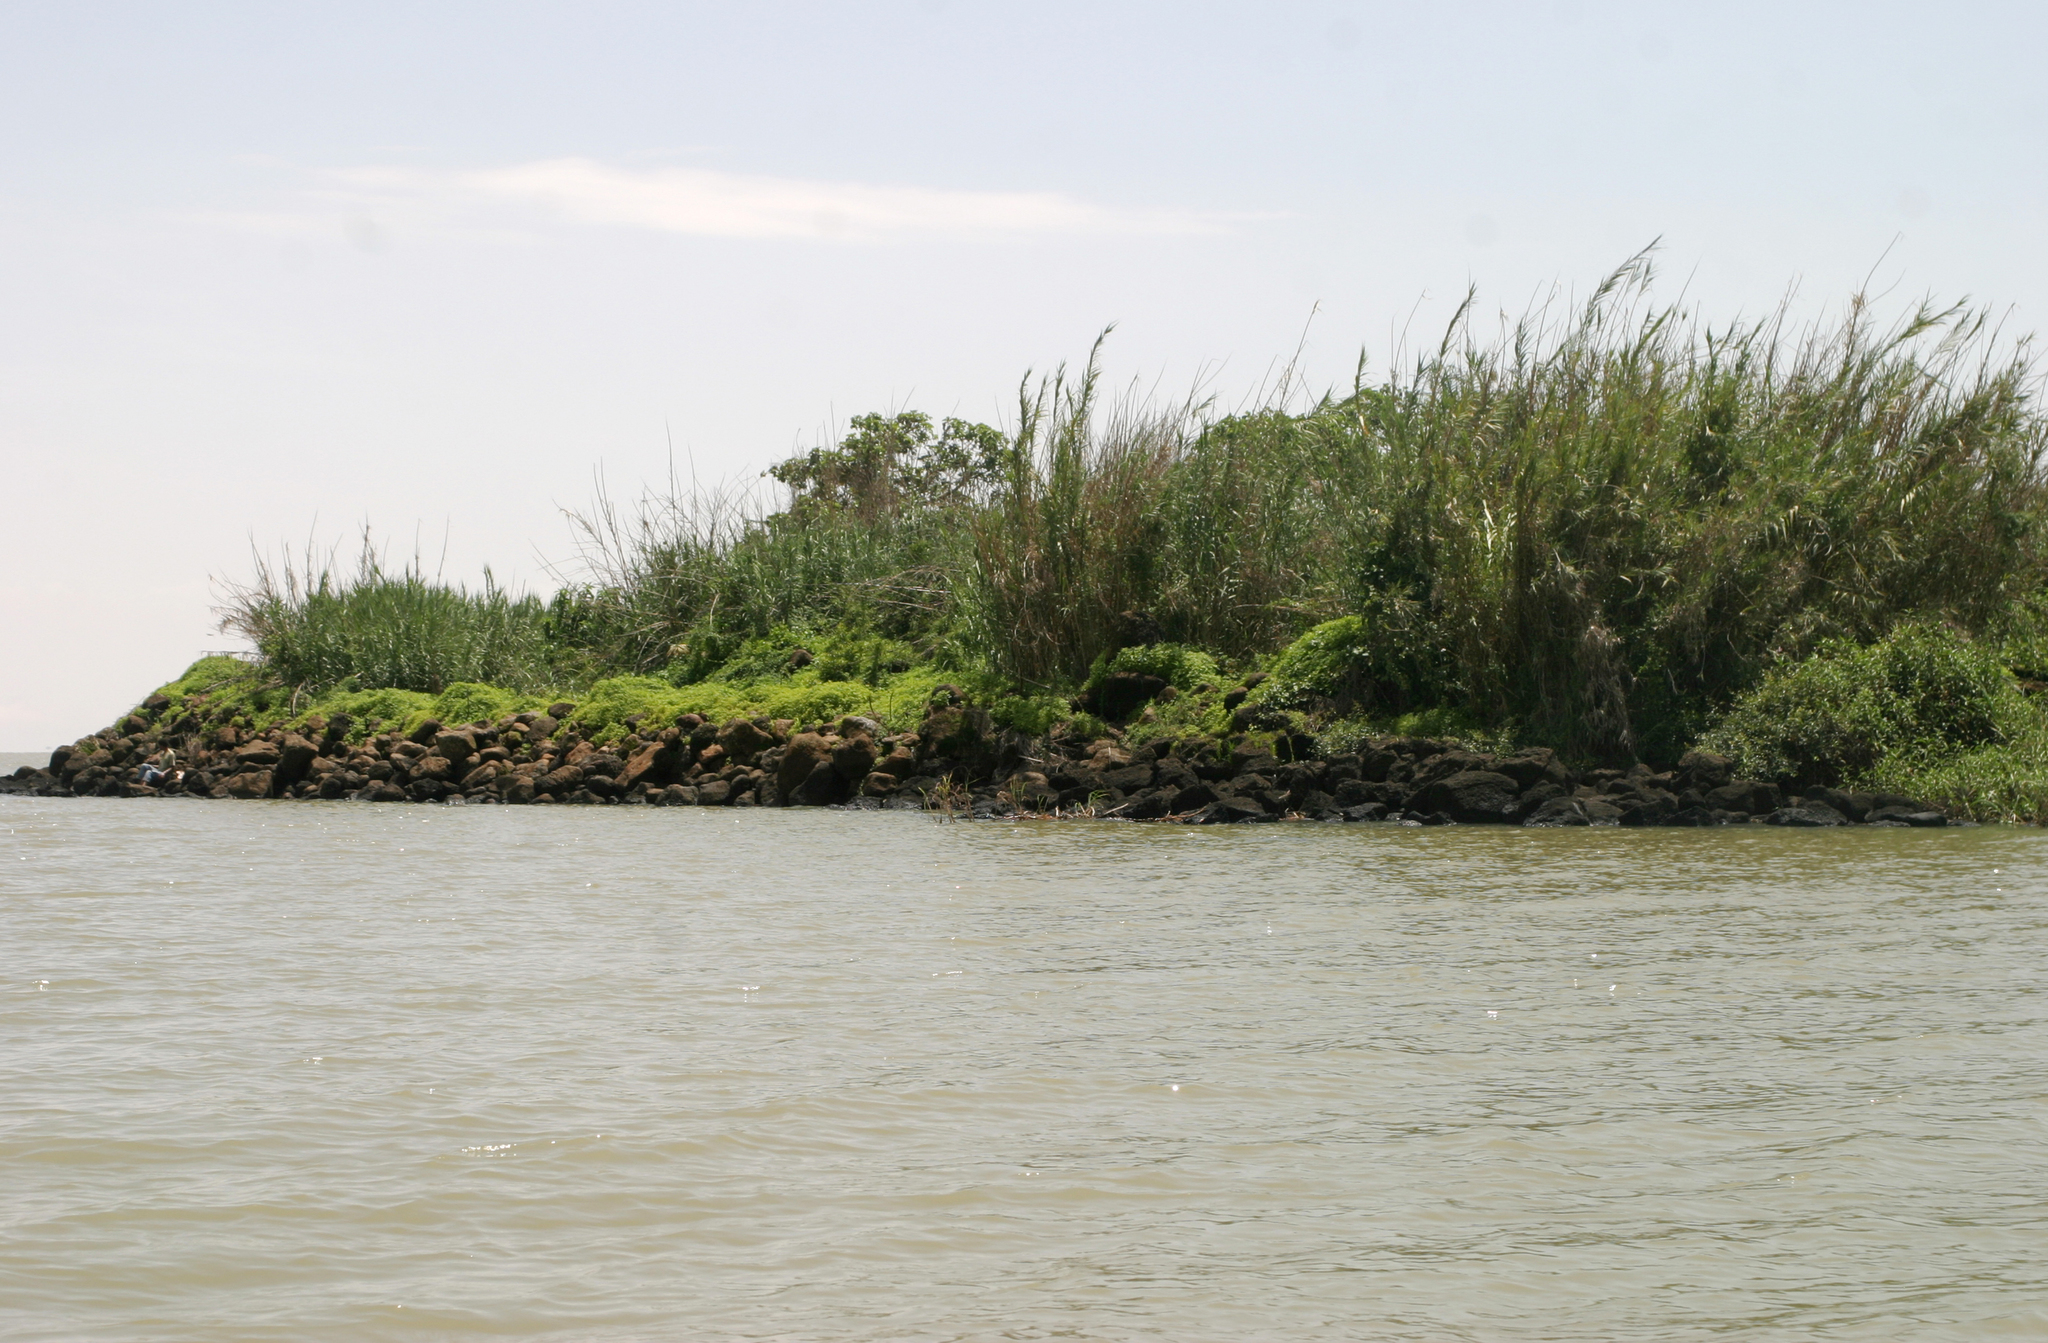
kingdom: Plantae
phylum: Tracheophyta
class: Liliopsida
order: Poales
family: Poaceae
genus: Arundo
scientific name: Arundo donax
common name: Giant reed
